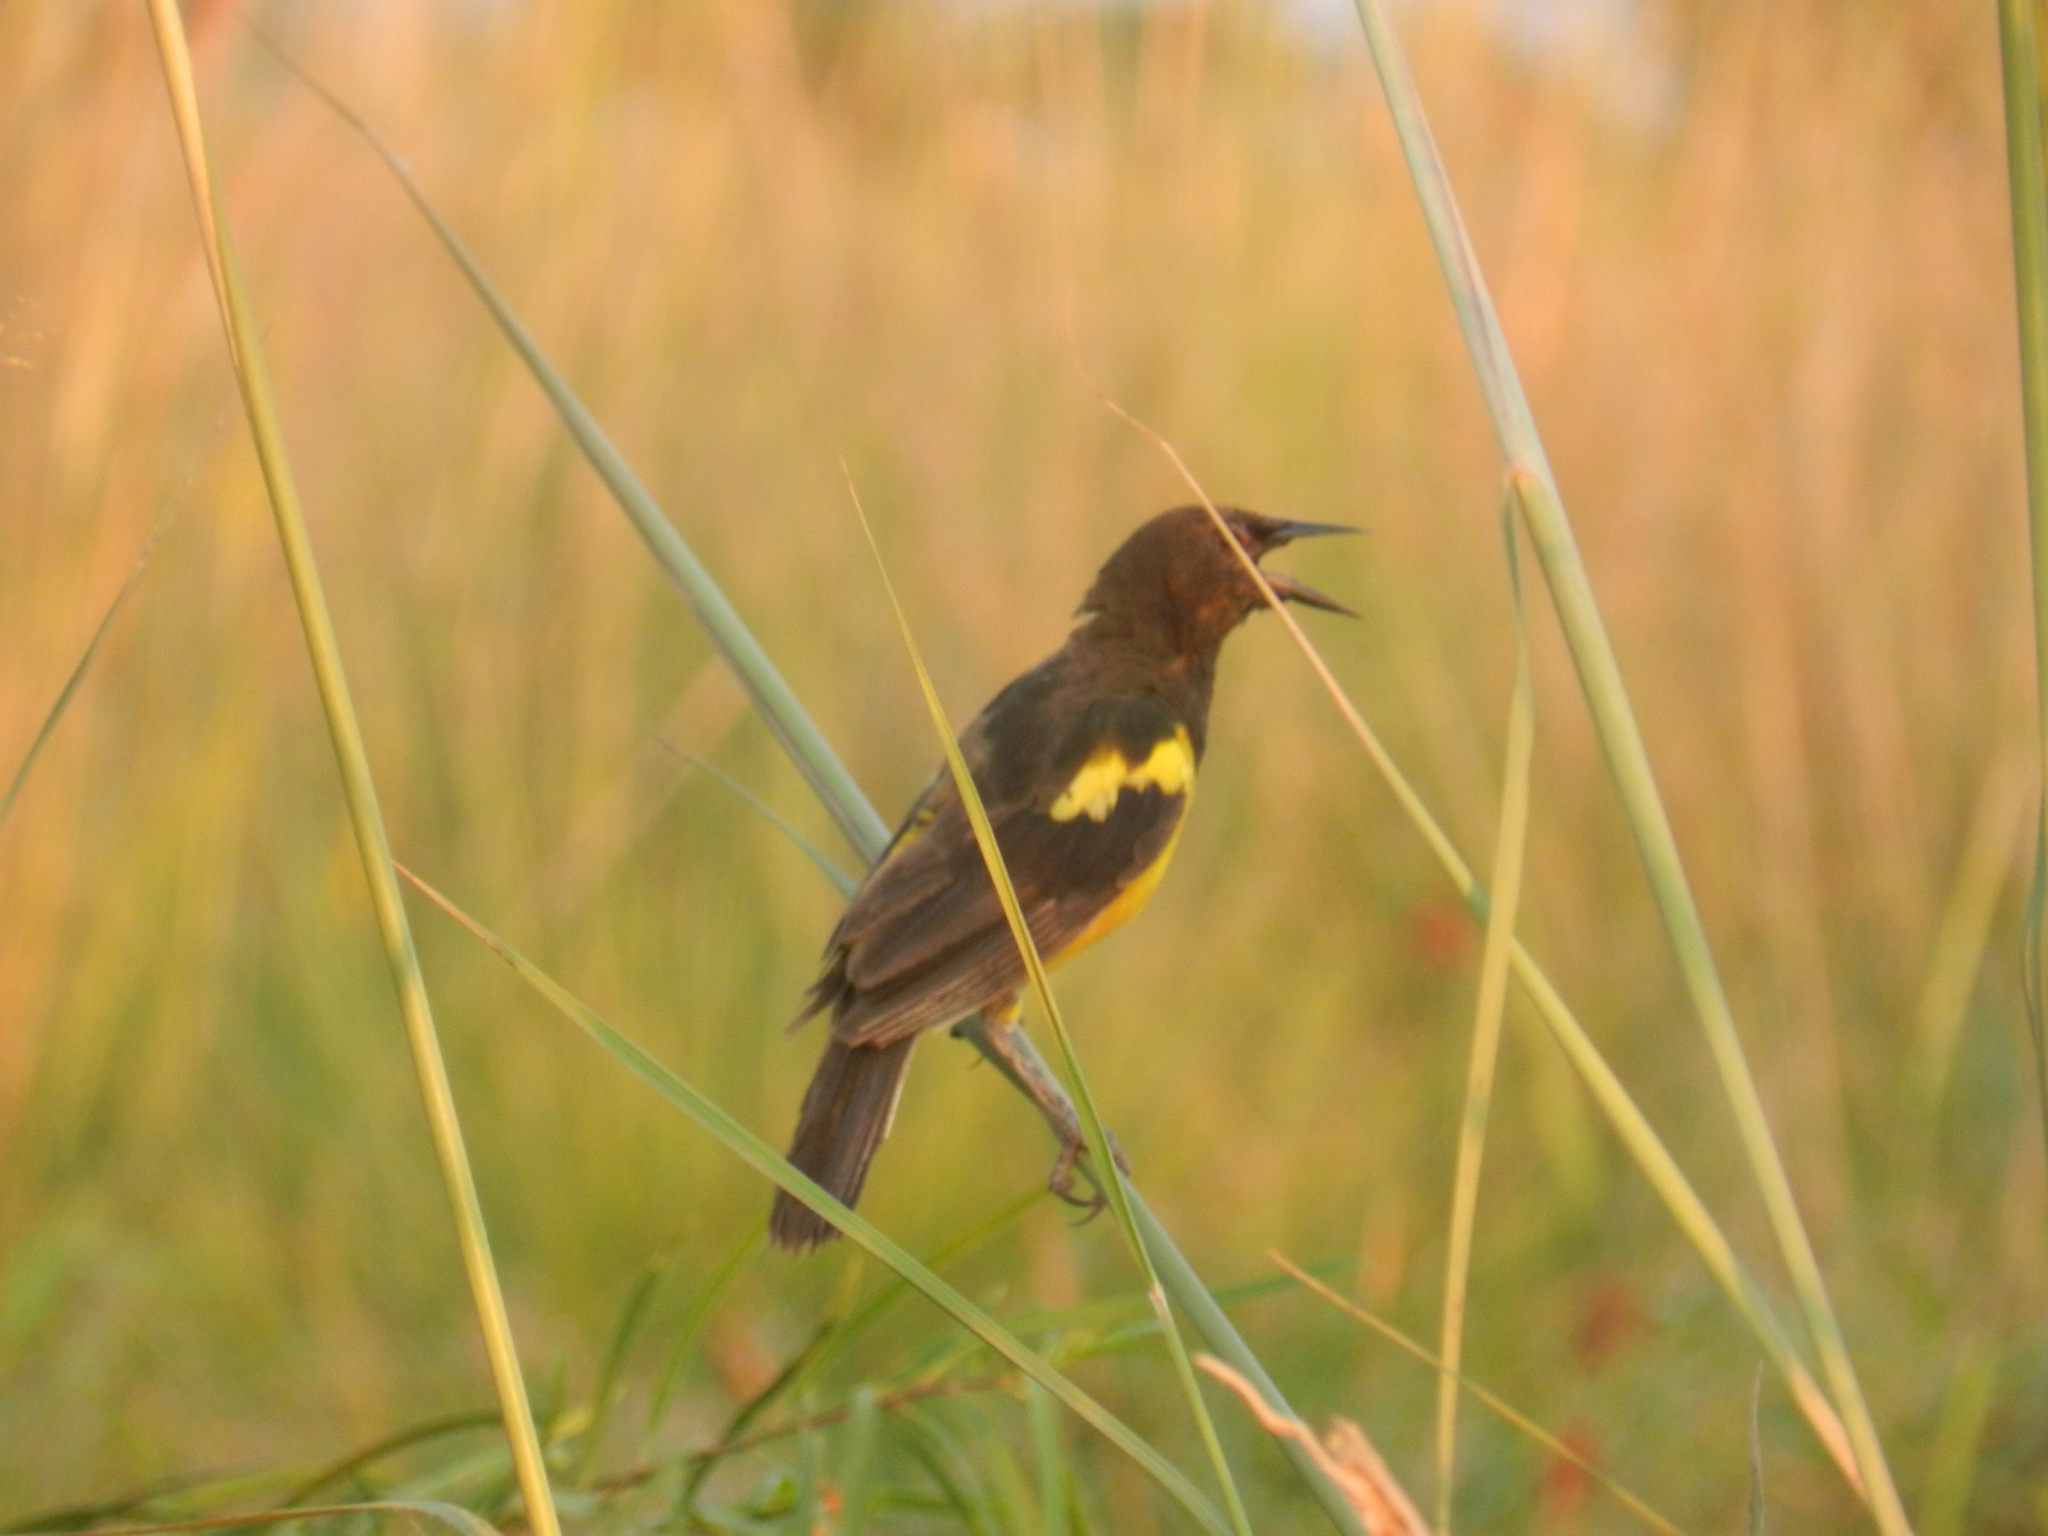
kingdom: Animalia
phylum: Chordata
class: Aves
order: Passeriformes
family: Icteridae
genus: Pseudoleistes
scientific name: Pseudoleistes guirahuro
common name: Yellow-rumped marshbird
